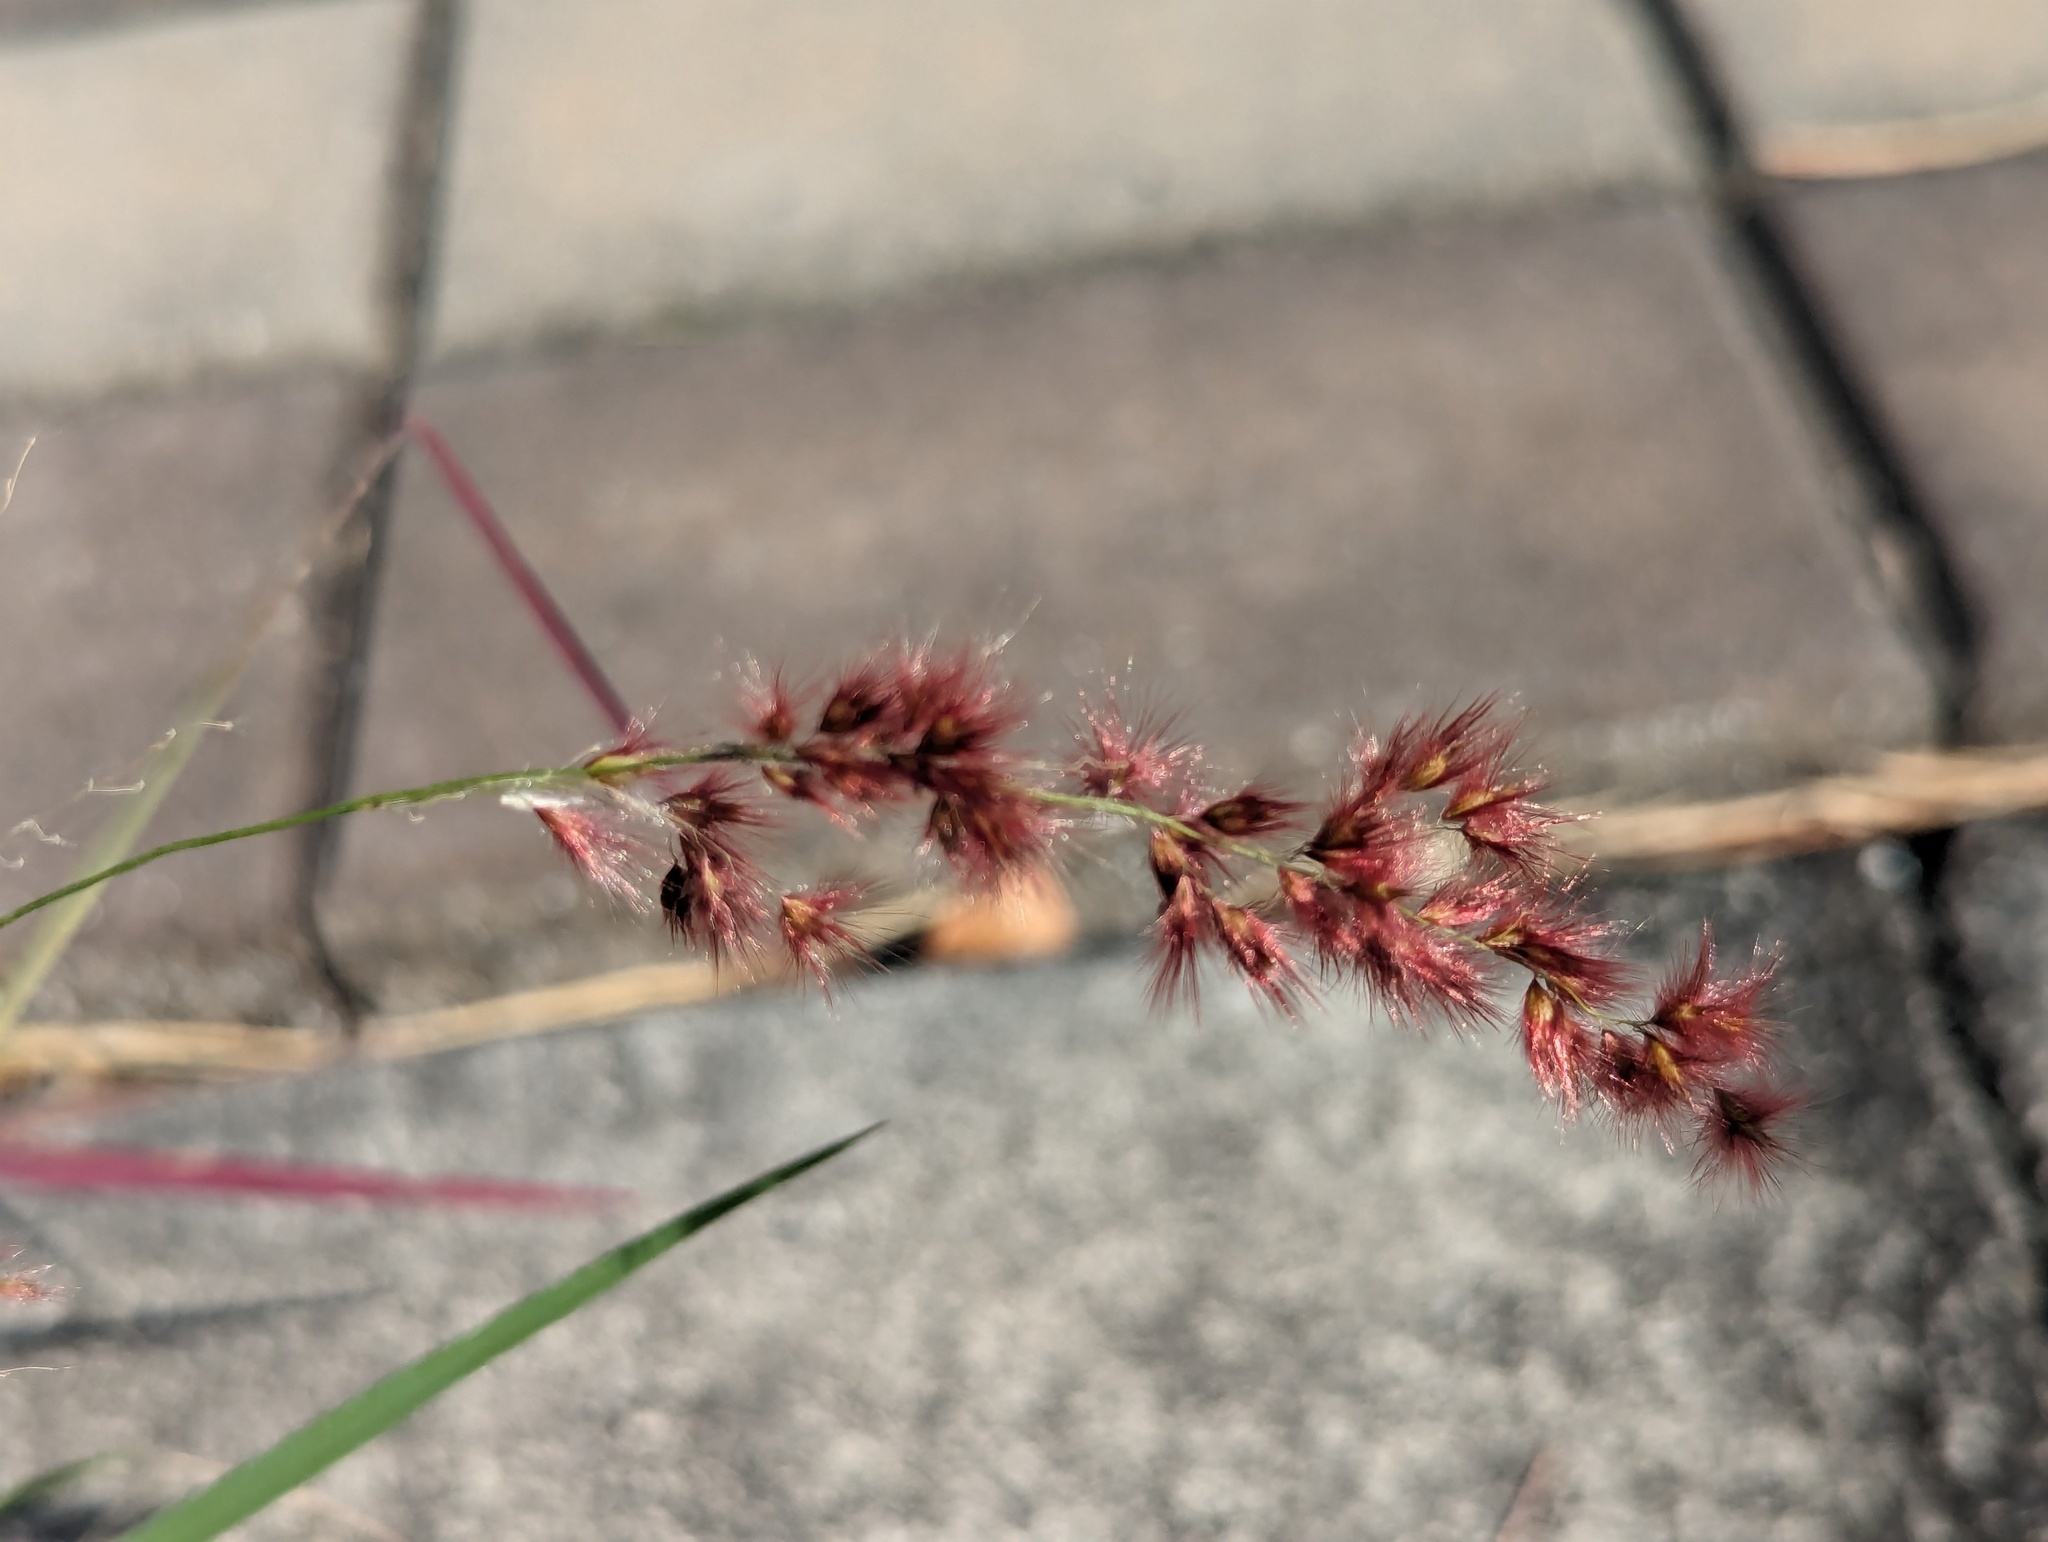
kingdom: Plantae
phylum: Tracheophyta
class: Liliopsida
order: Poales
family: Poaceae
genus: Melinis
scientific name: Melinis repens
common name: Rose natal grass
